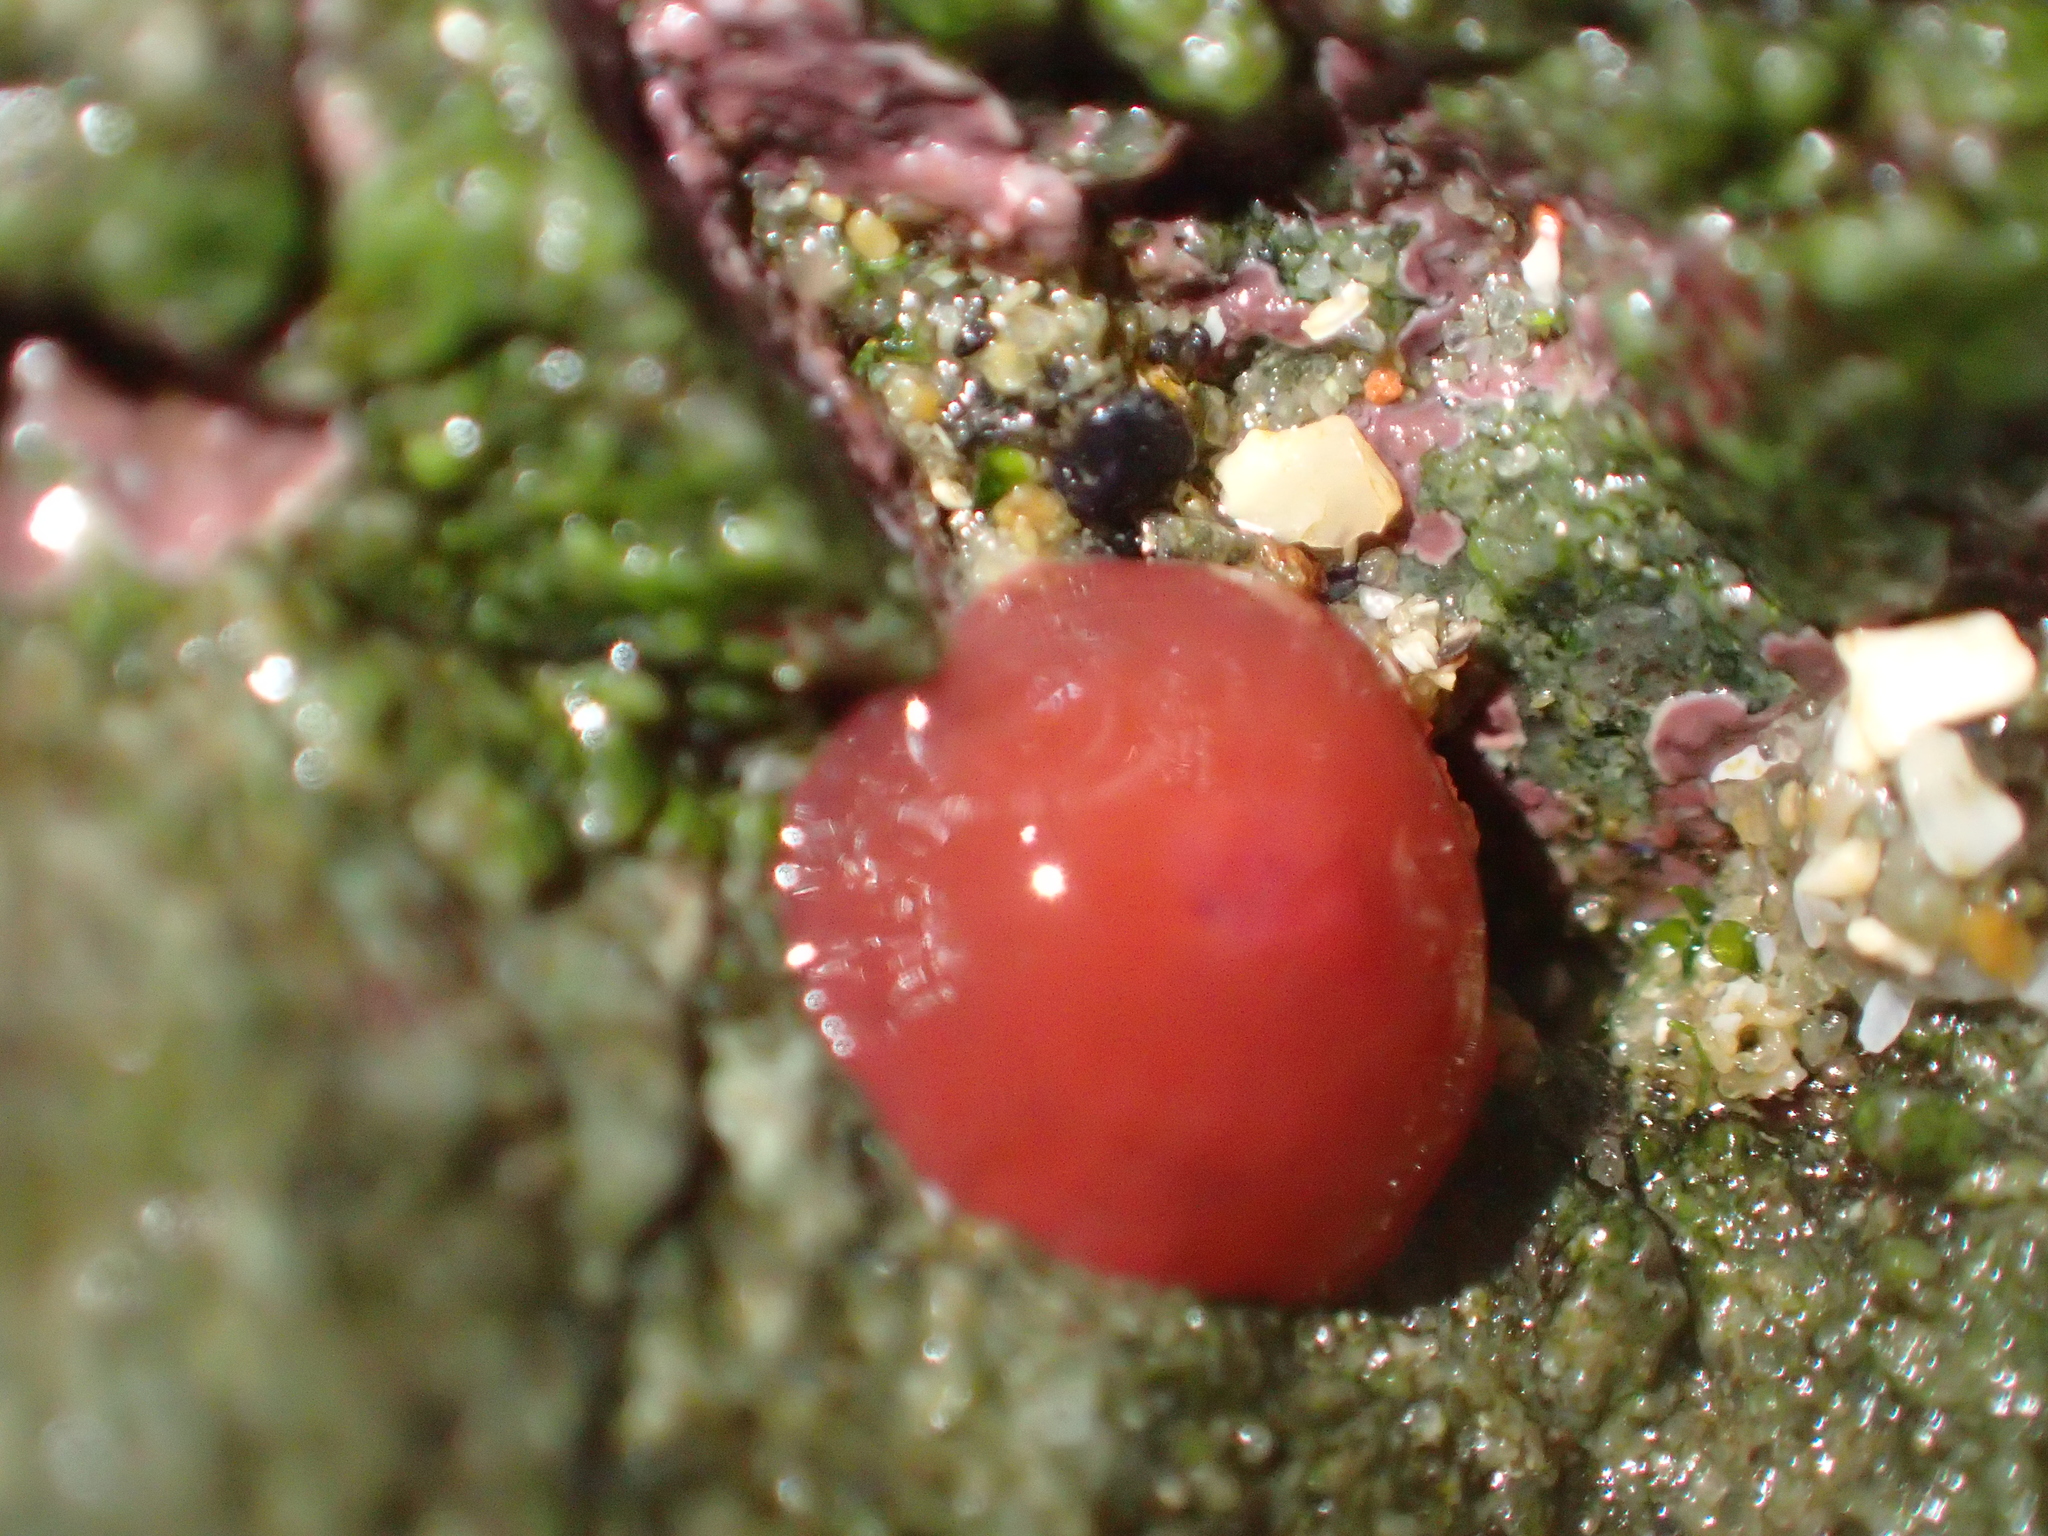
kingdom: Animalia
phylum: Cnidaria
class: Anthozoa
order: Actiniaria
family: Actiniidae
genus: Actinia
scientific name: Actinia tenebrosa
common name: Waratah anemone
